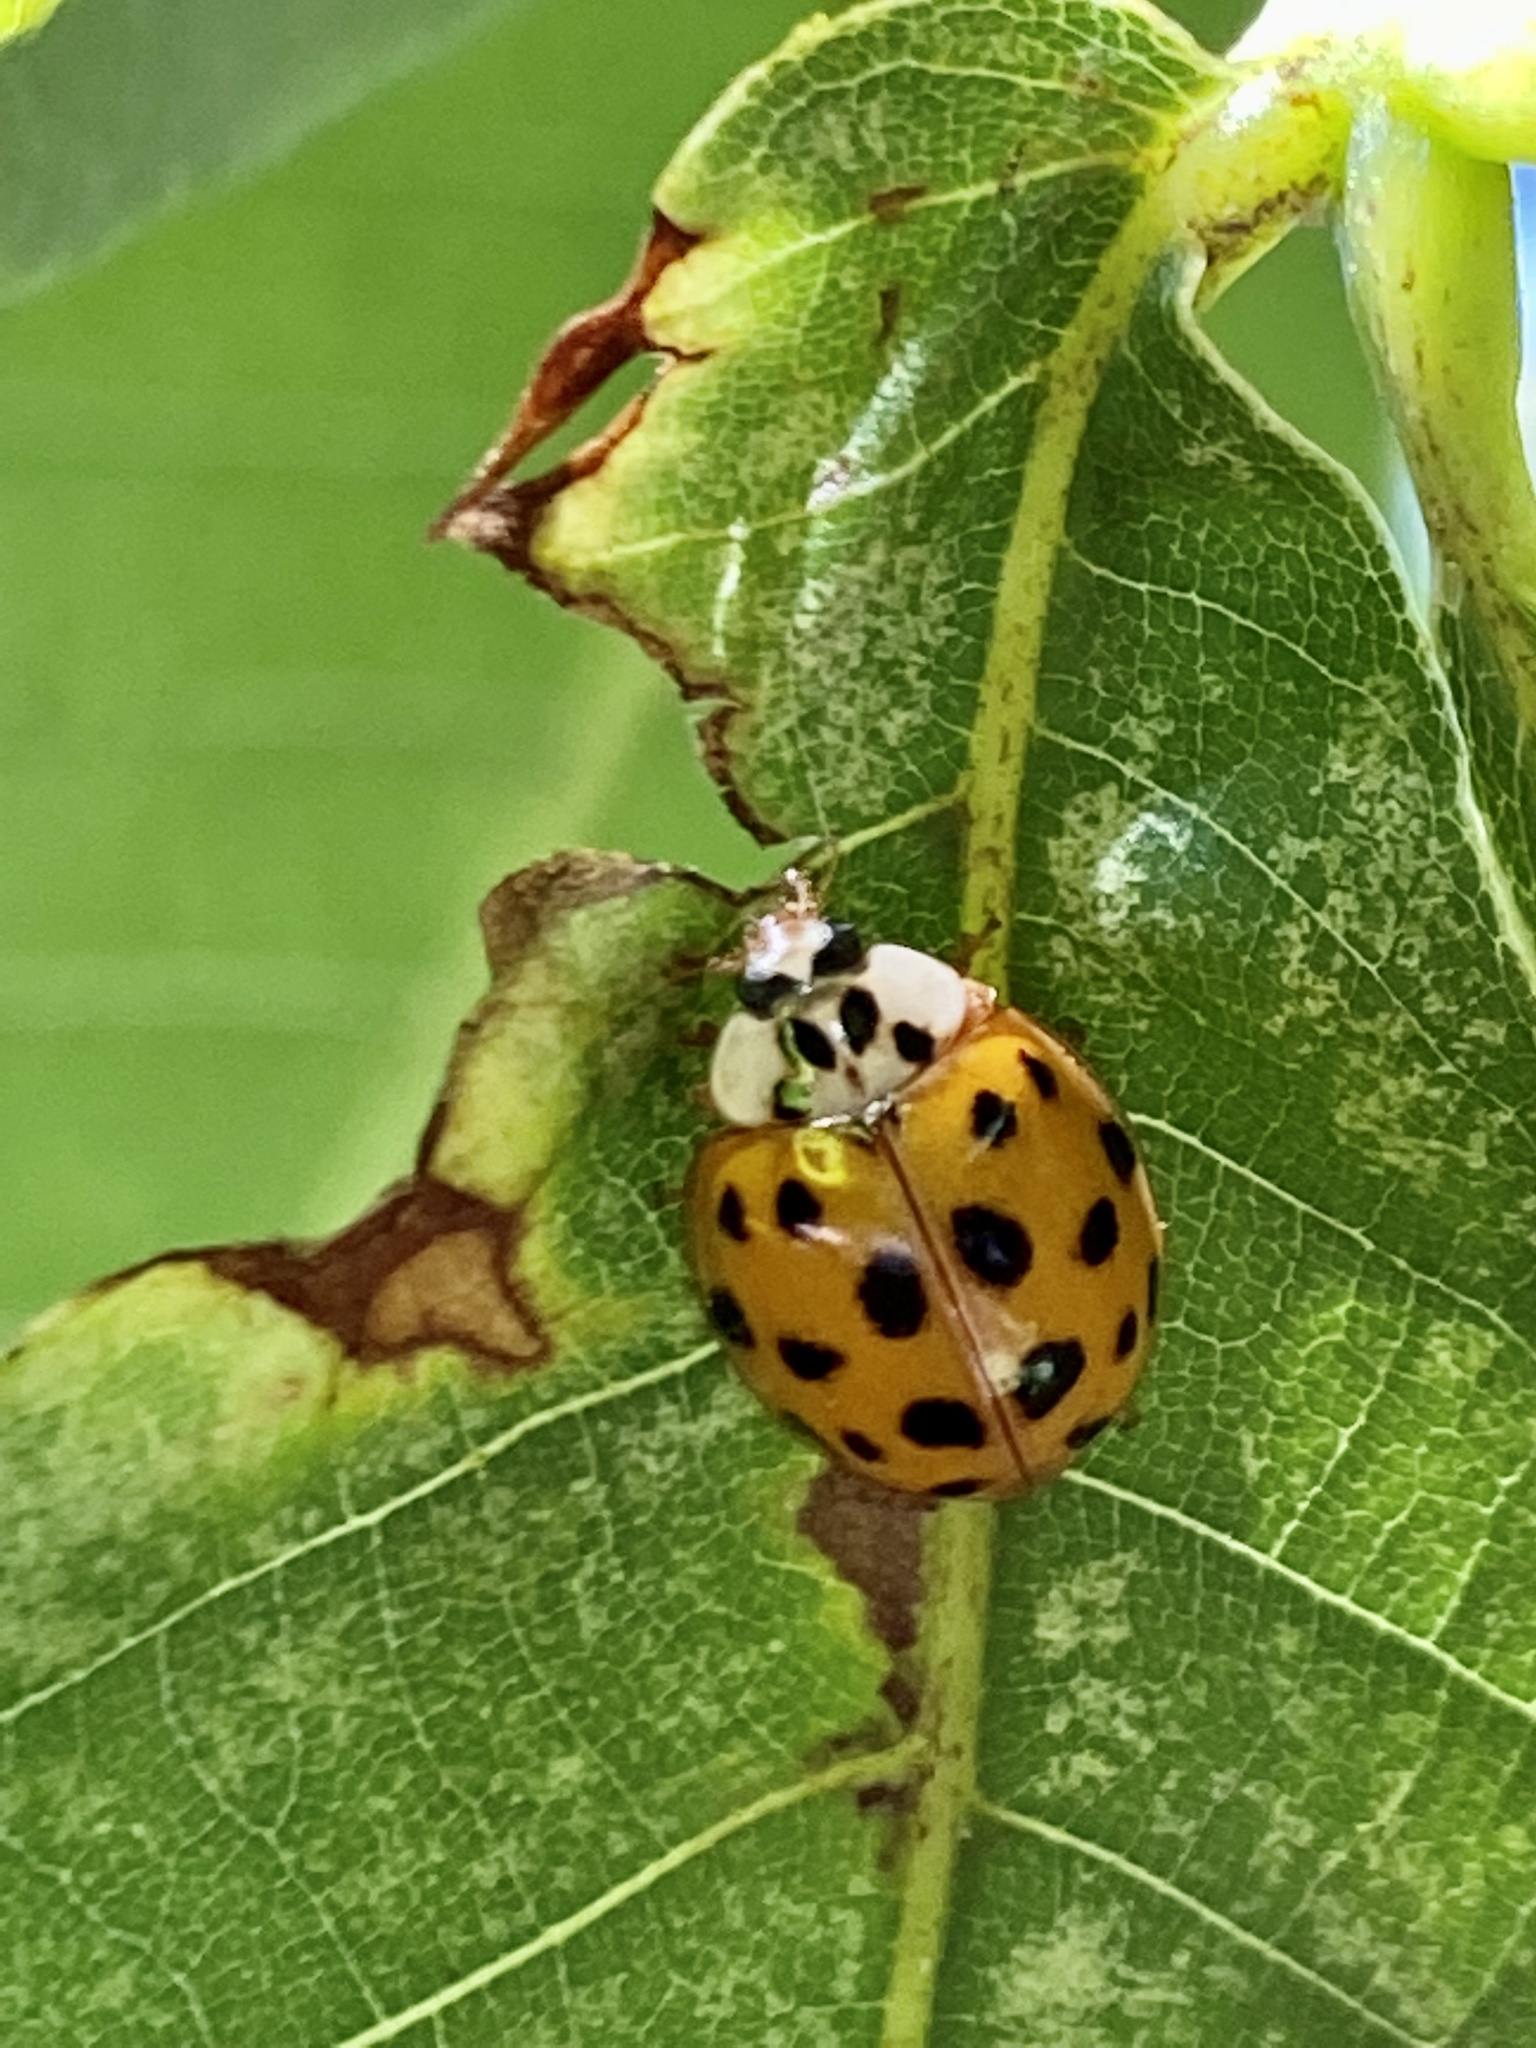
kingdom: Animalia
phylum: Arthropoda
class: Insecta
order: Coleoptera
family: Coccinellidae
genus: Harmonia
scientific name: Harmonia axyridis
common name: Harlequin ladybird
